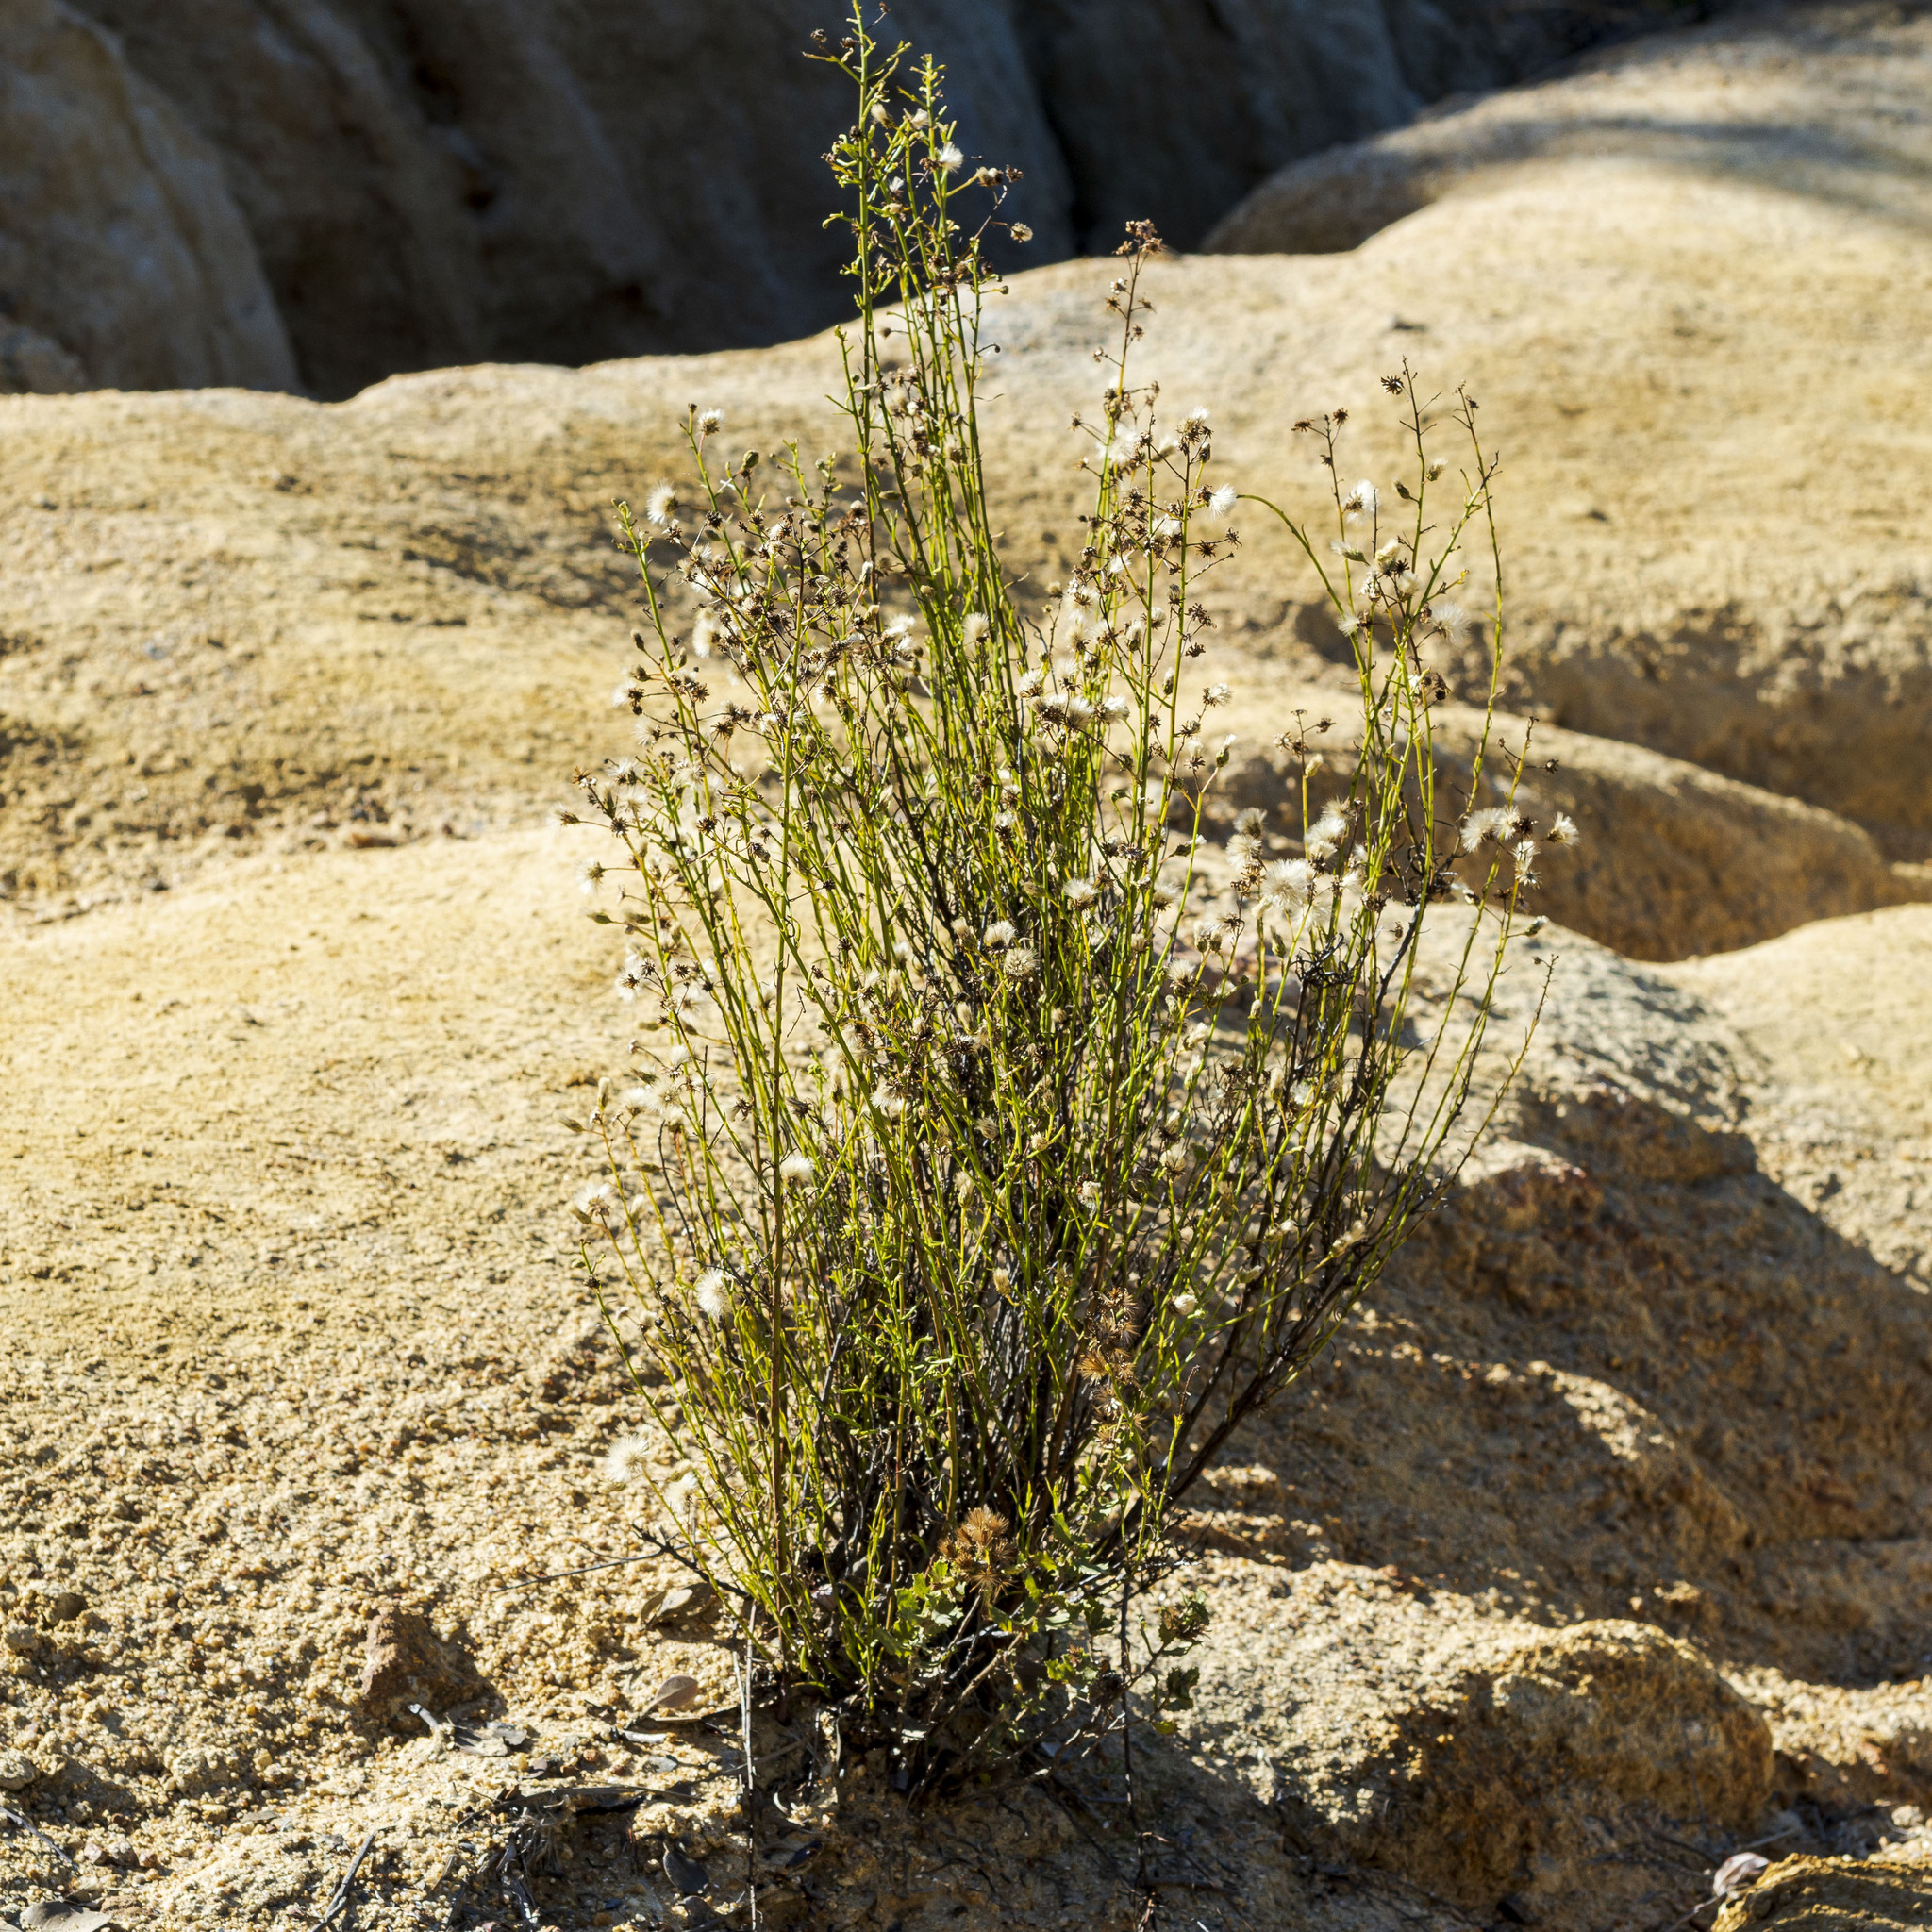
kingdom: Plantae
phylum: Tracheophyta
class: Magnoliopsida
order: Asterales
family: Asteraceae
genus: Baccharis
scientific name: Baccharis vanessae
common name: Encinitas baccharis
